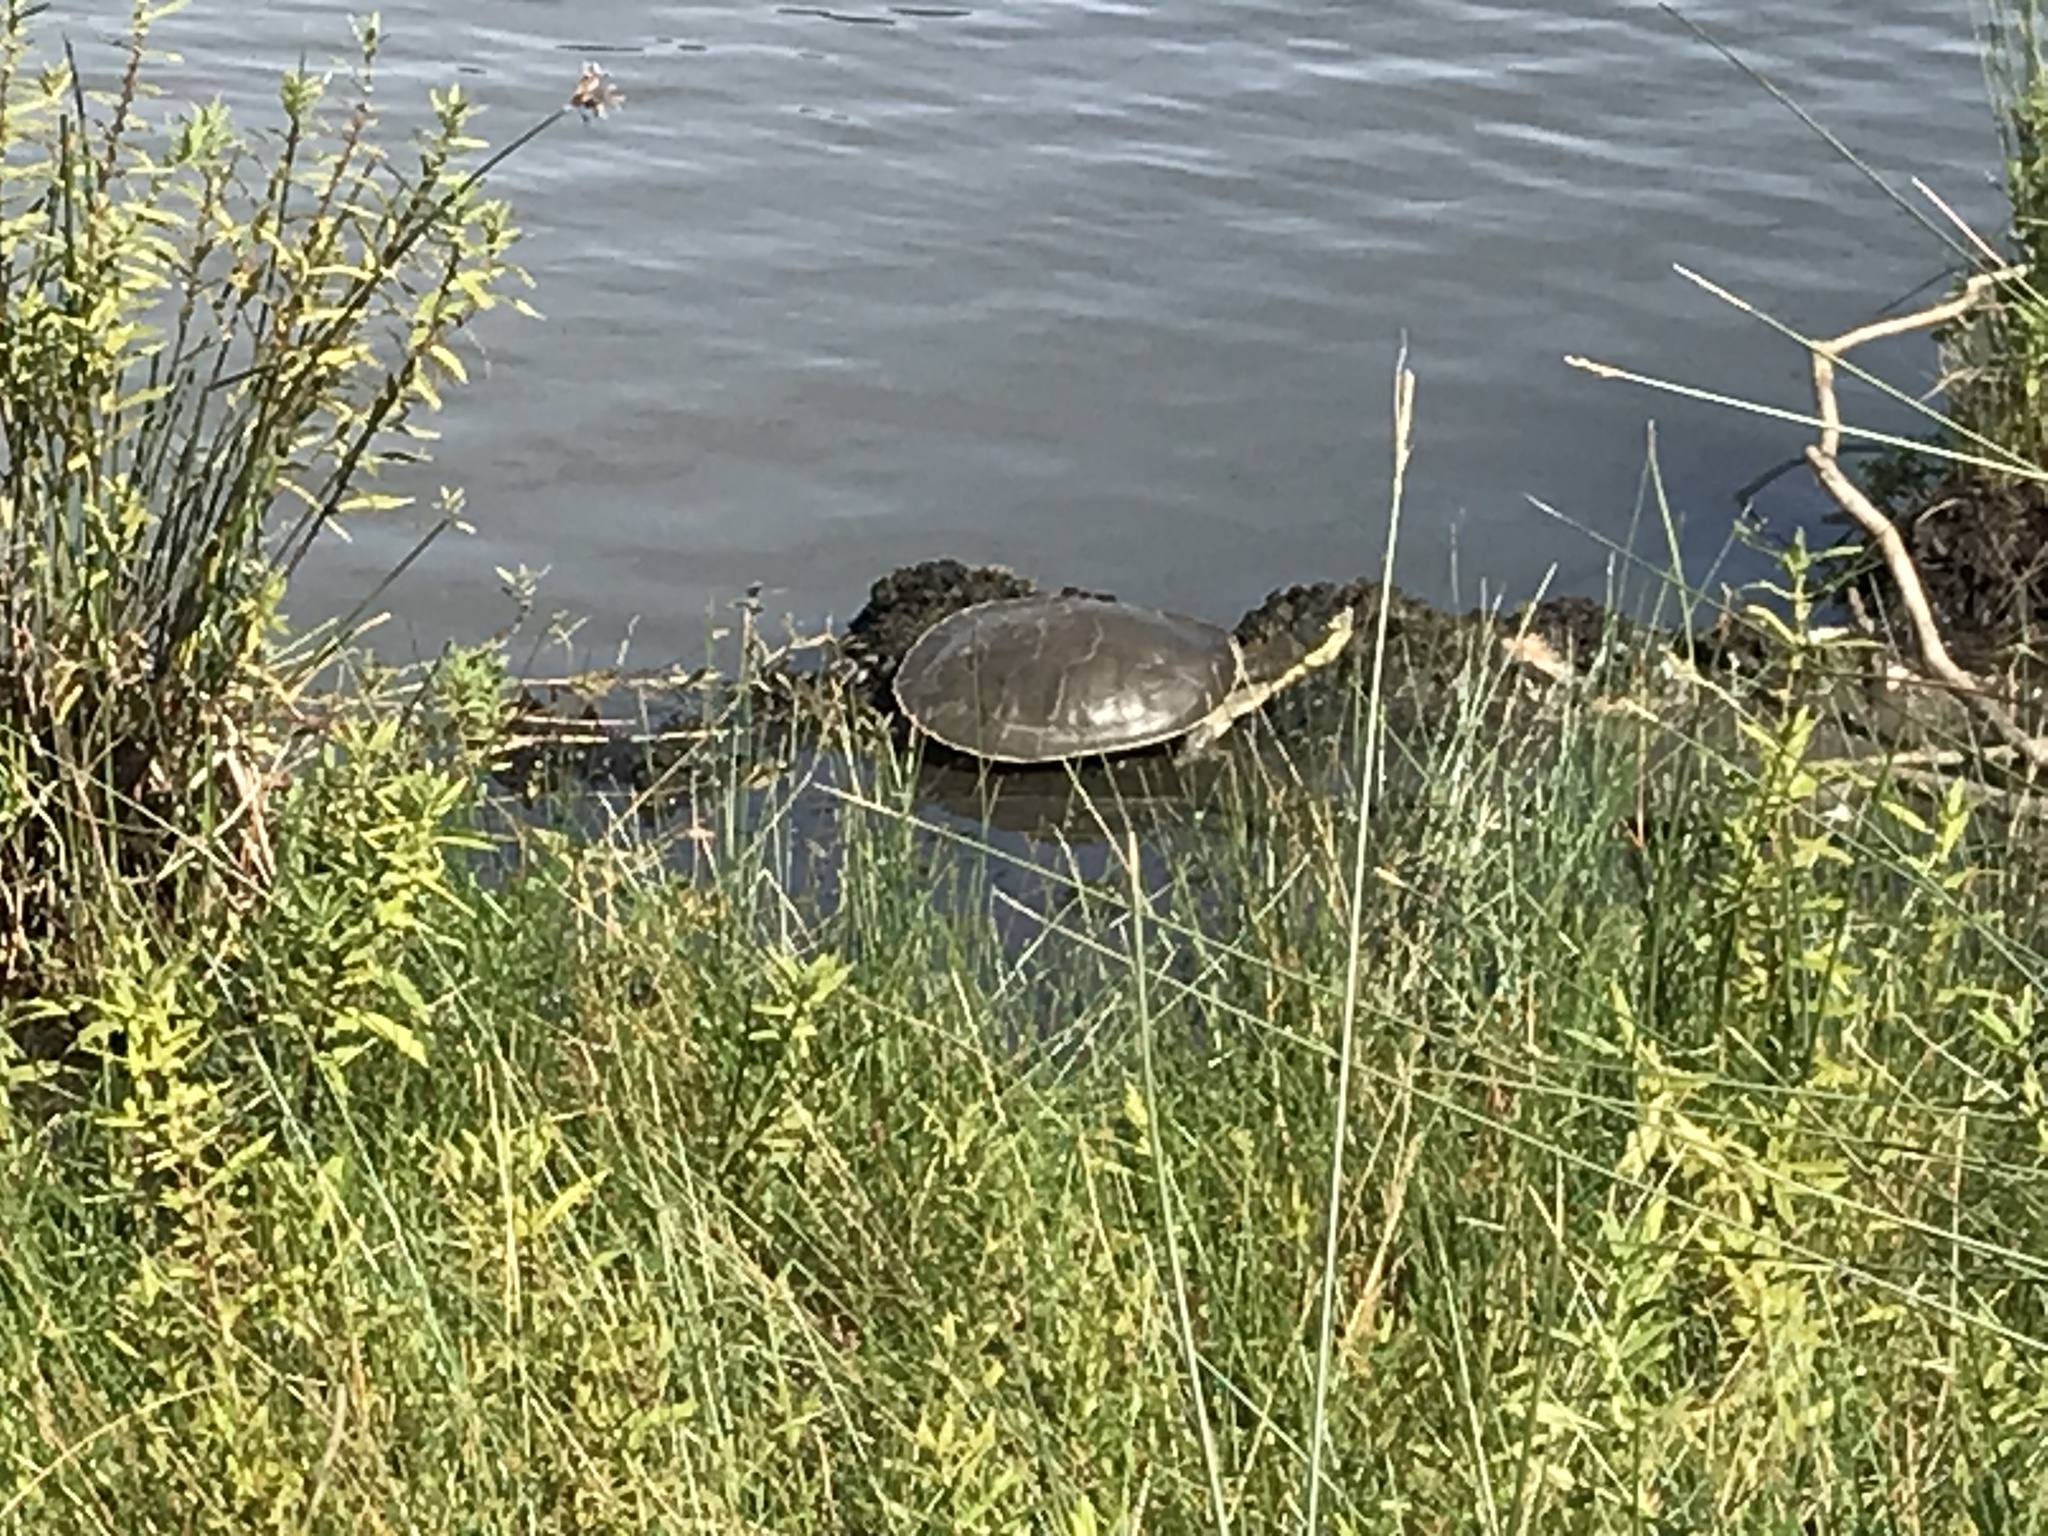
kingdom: Animalia
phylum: Chordata
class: Testudines
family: Chelidae
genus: Emydura
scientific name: Emydura macquarii
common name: Murray river turtle
